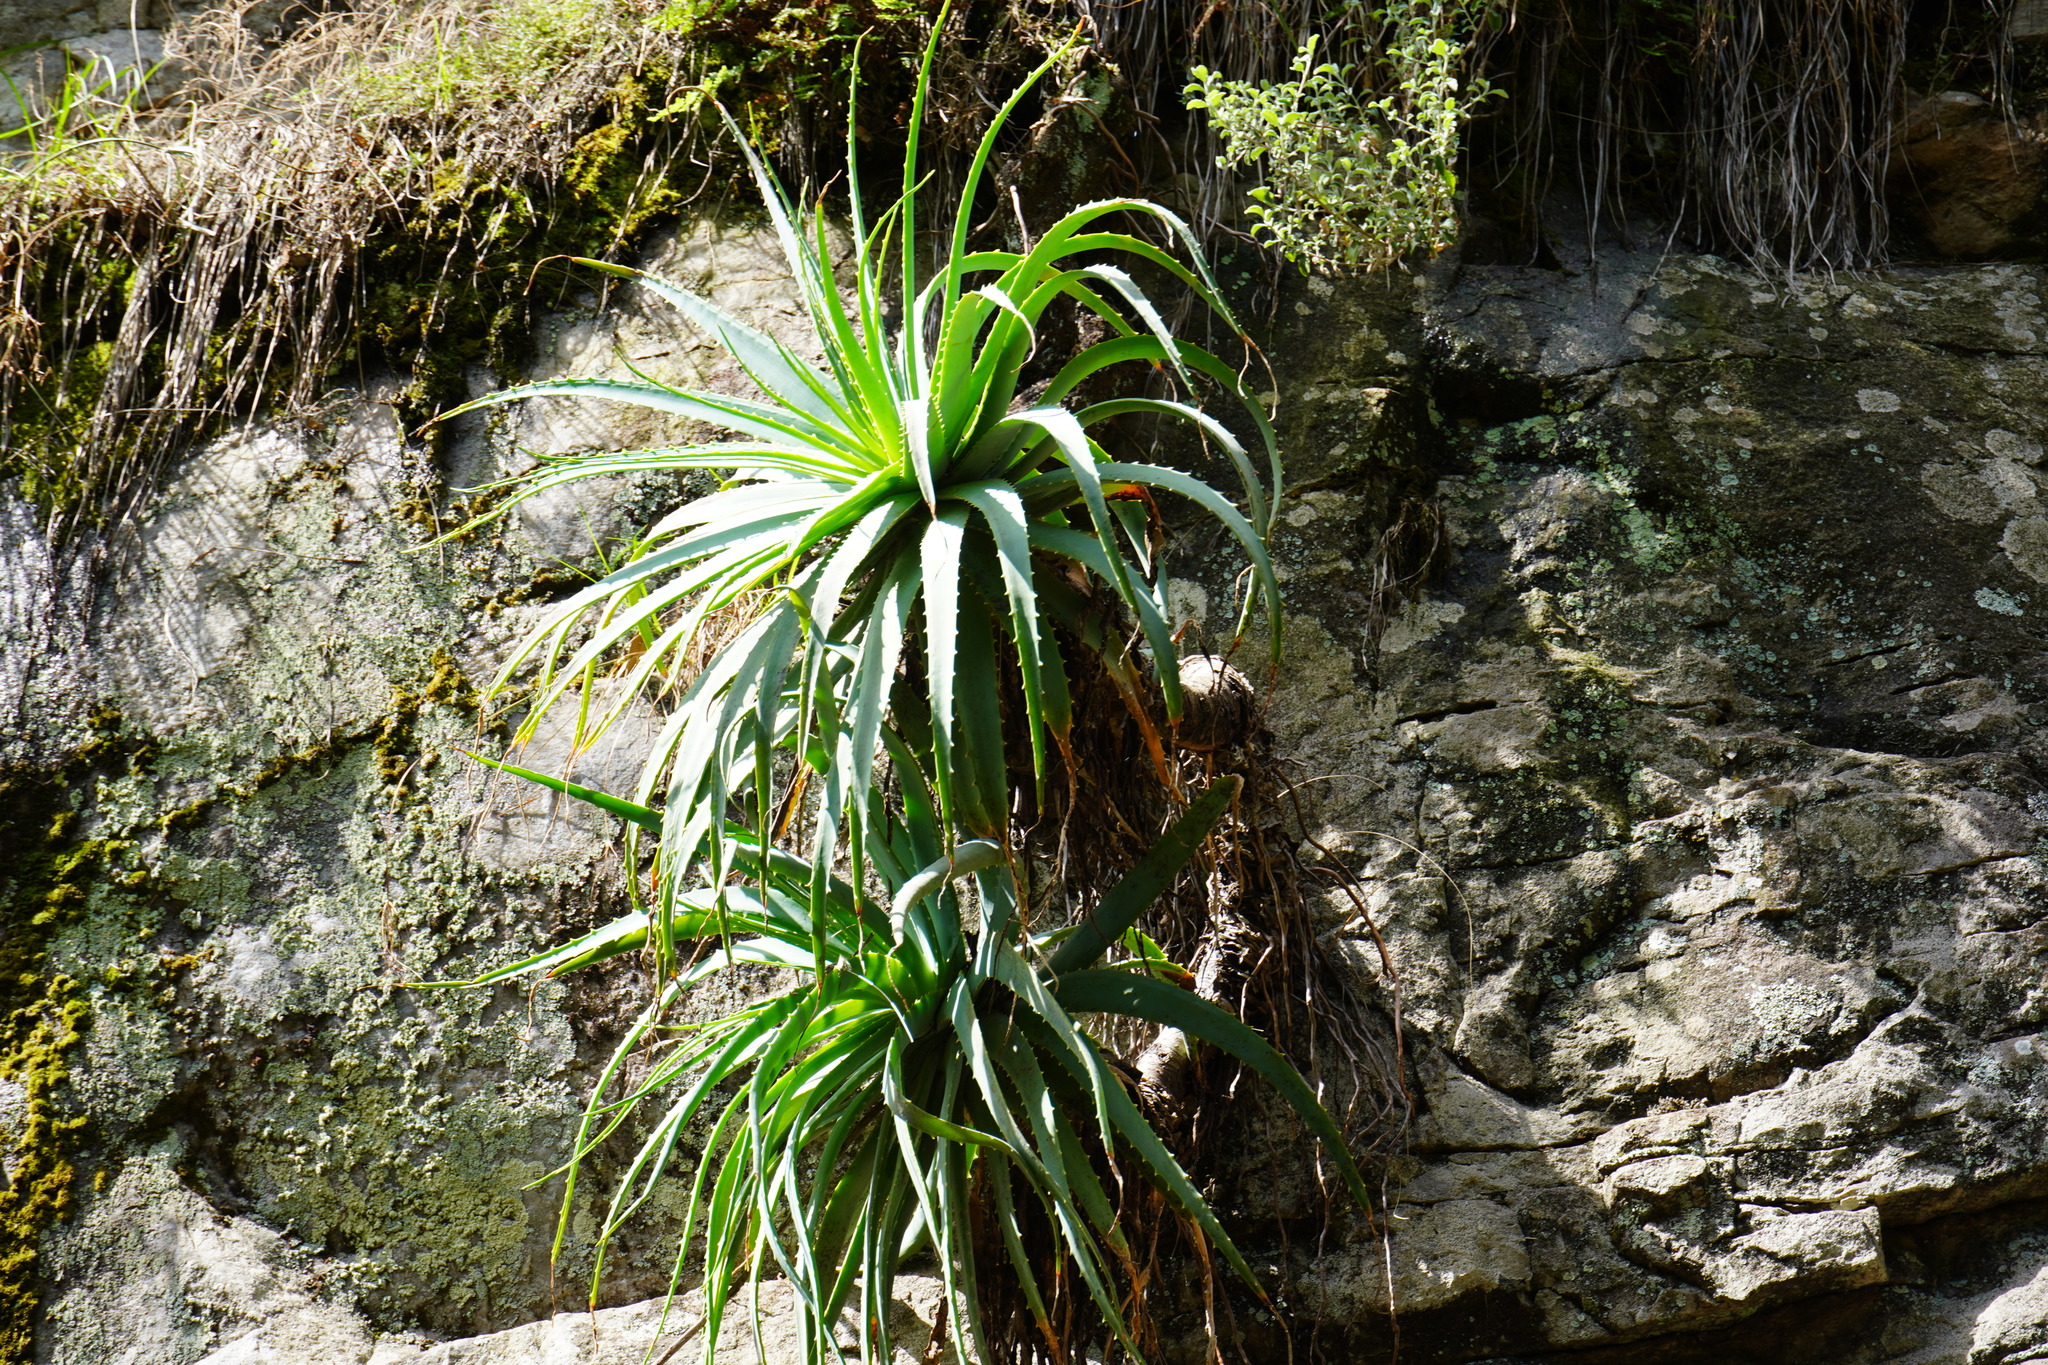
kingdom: Plantae
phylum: Tracheophyta
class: Liliopsida
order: Asparagales
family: Asphodelaceae
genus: Aloe
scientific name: Aloe mutabilis
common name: Blue krantz aloe
